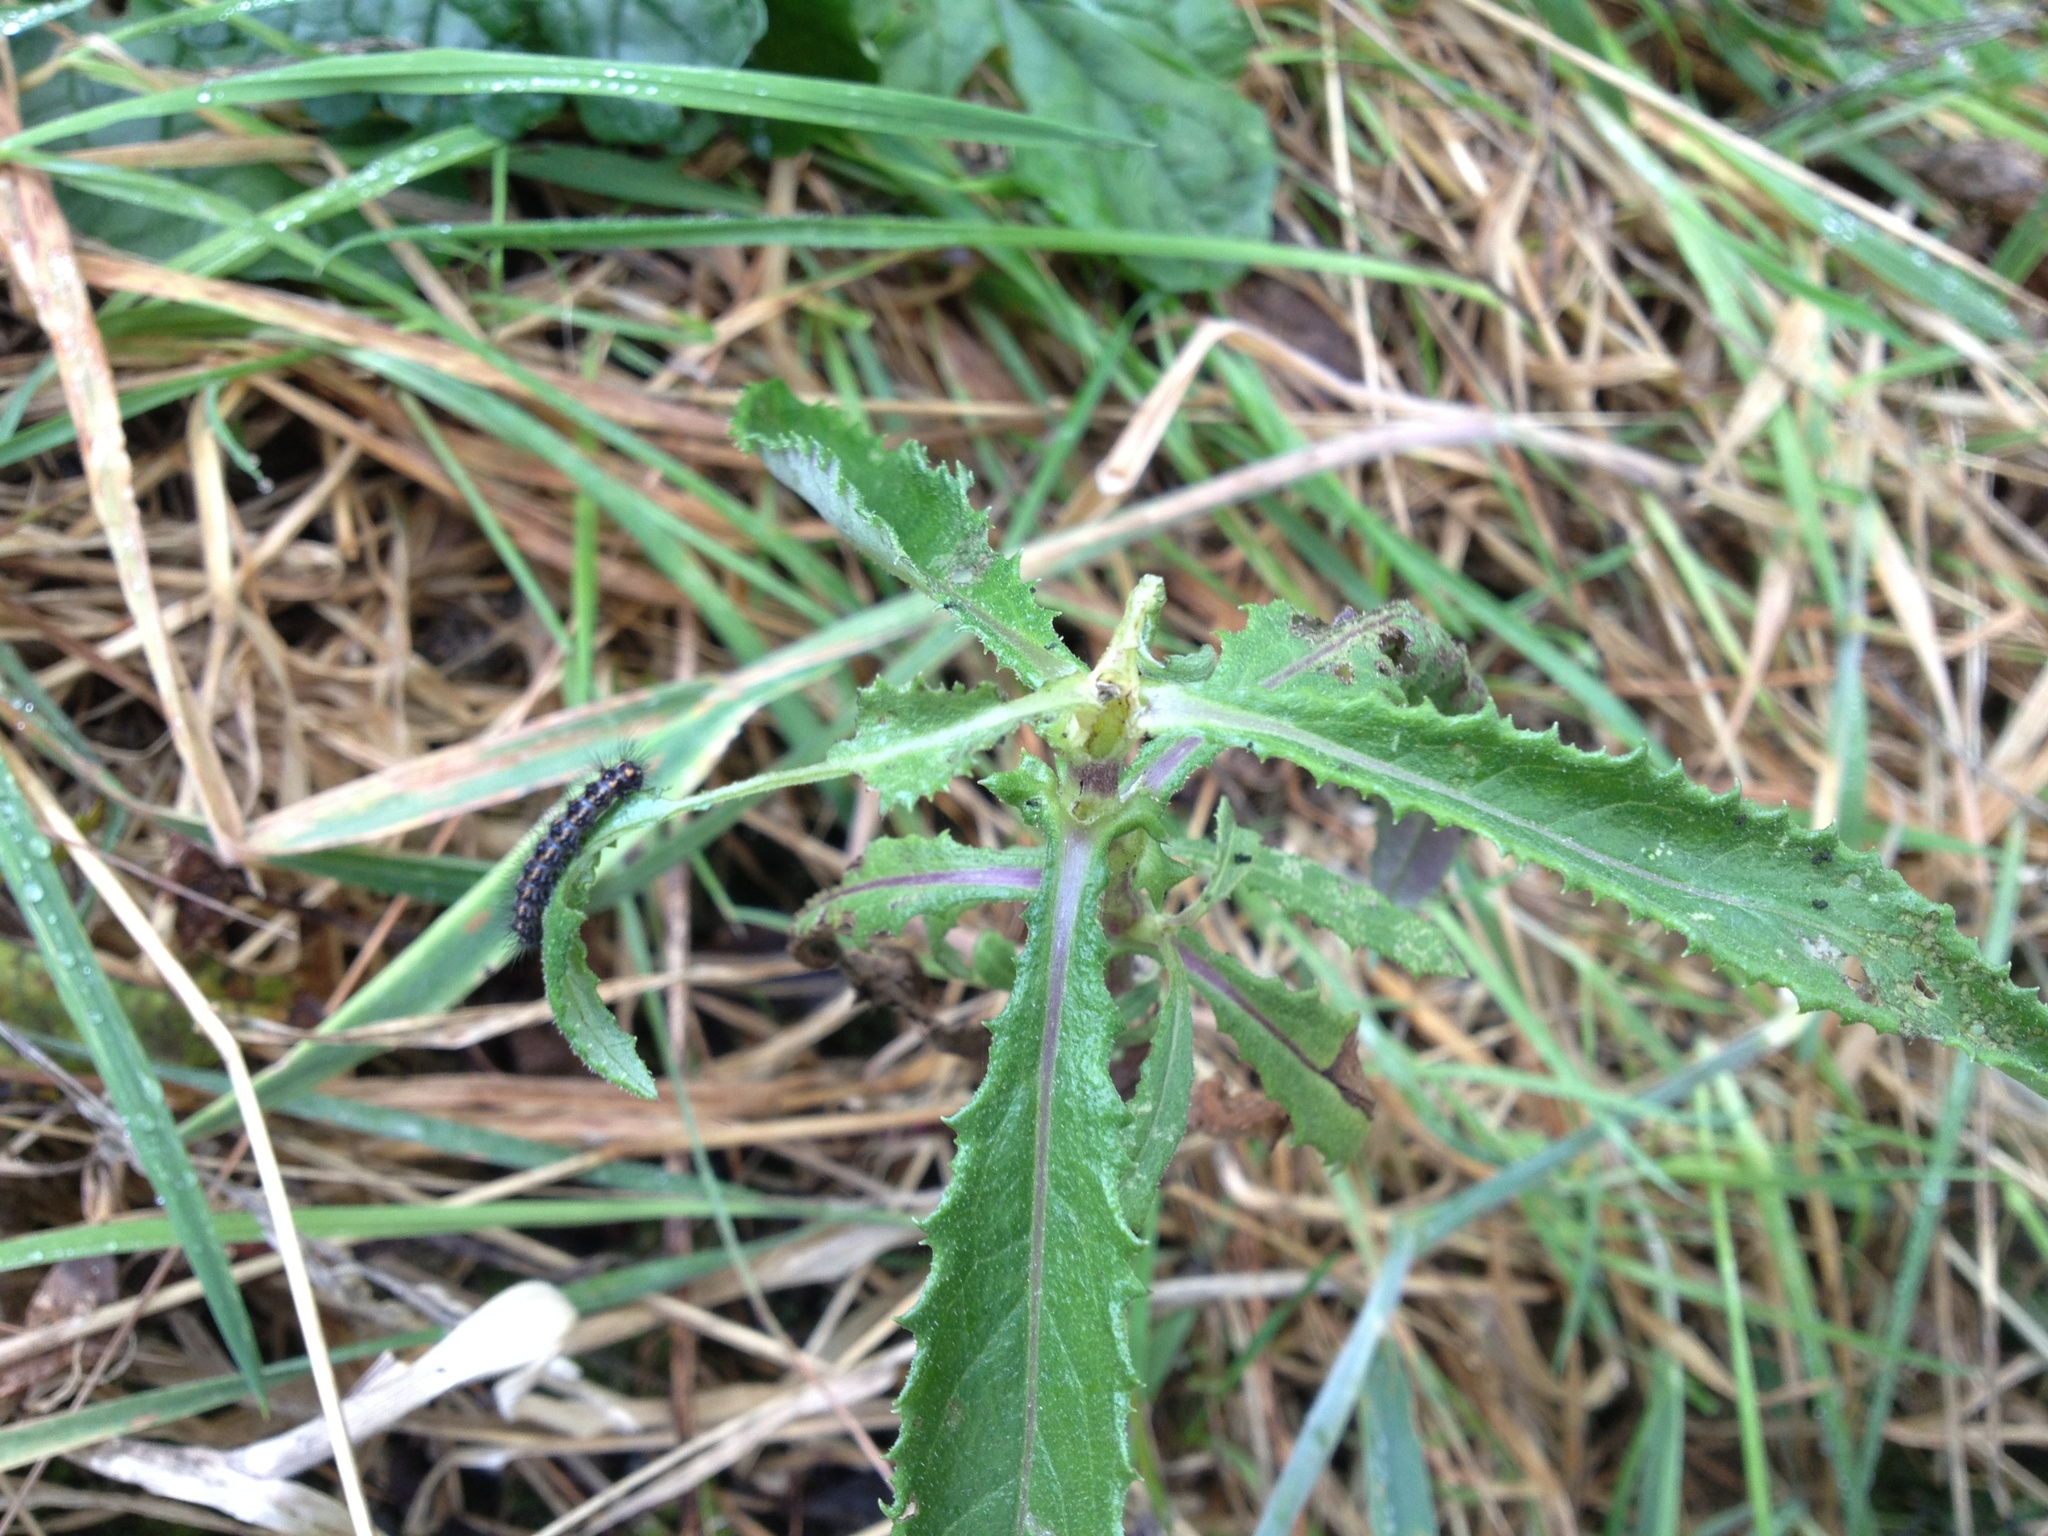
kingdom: Plantae
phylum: Tracheophyta
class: Magnoliopsida
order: Asterales
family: Asteraceae
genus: Senecio
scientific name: Senecio minimus
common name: Toothed fireweed
